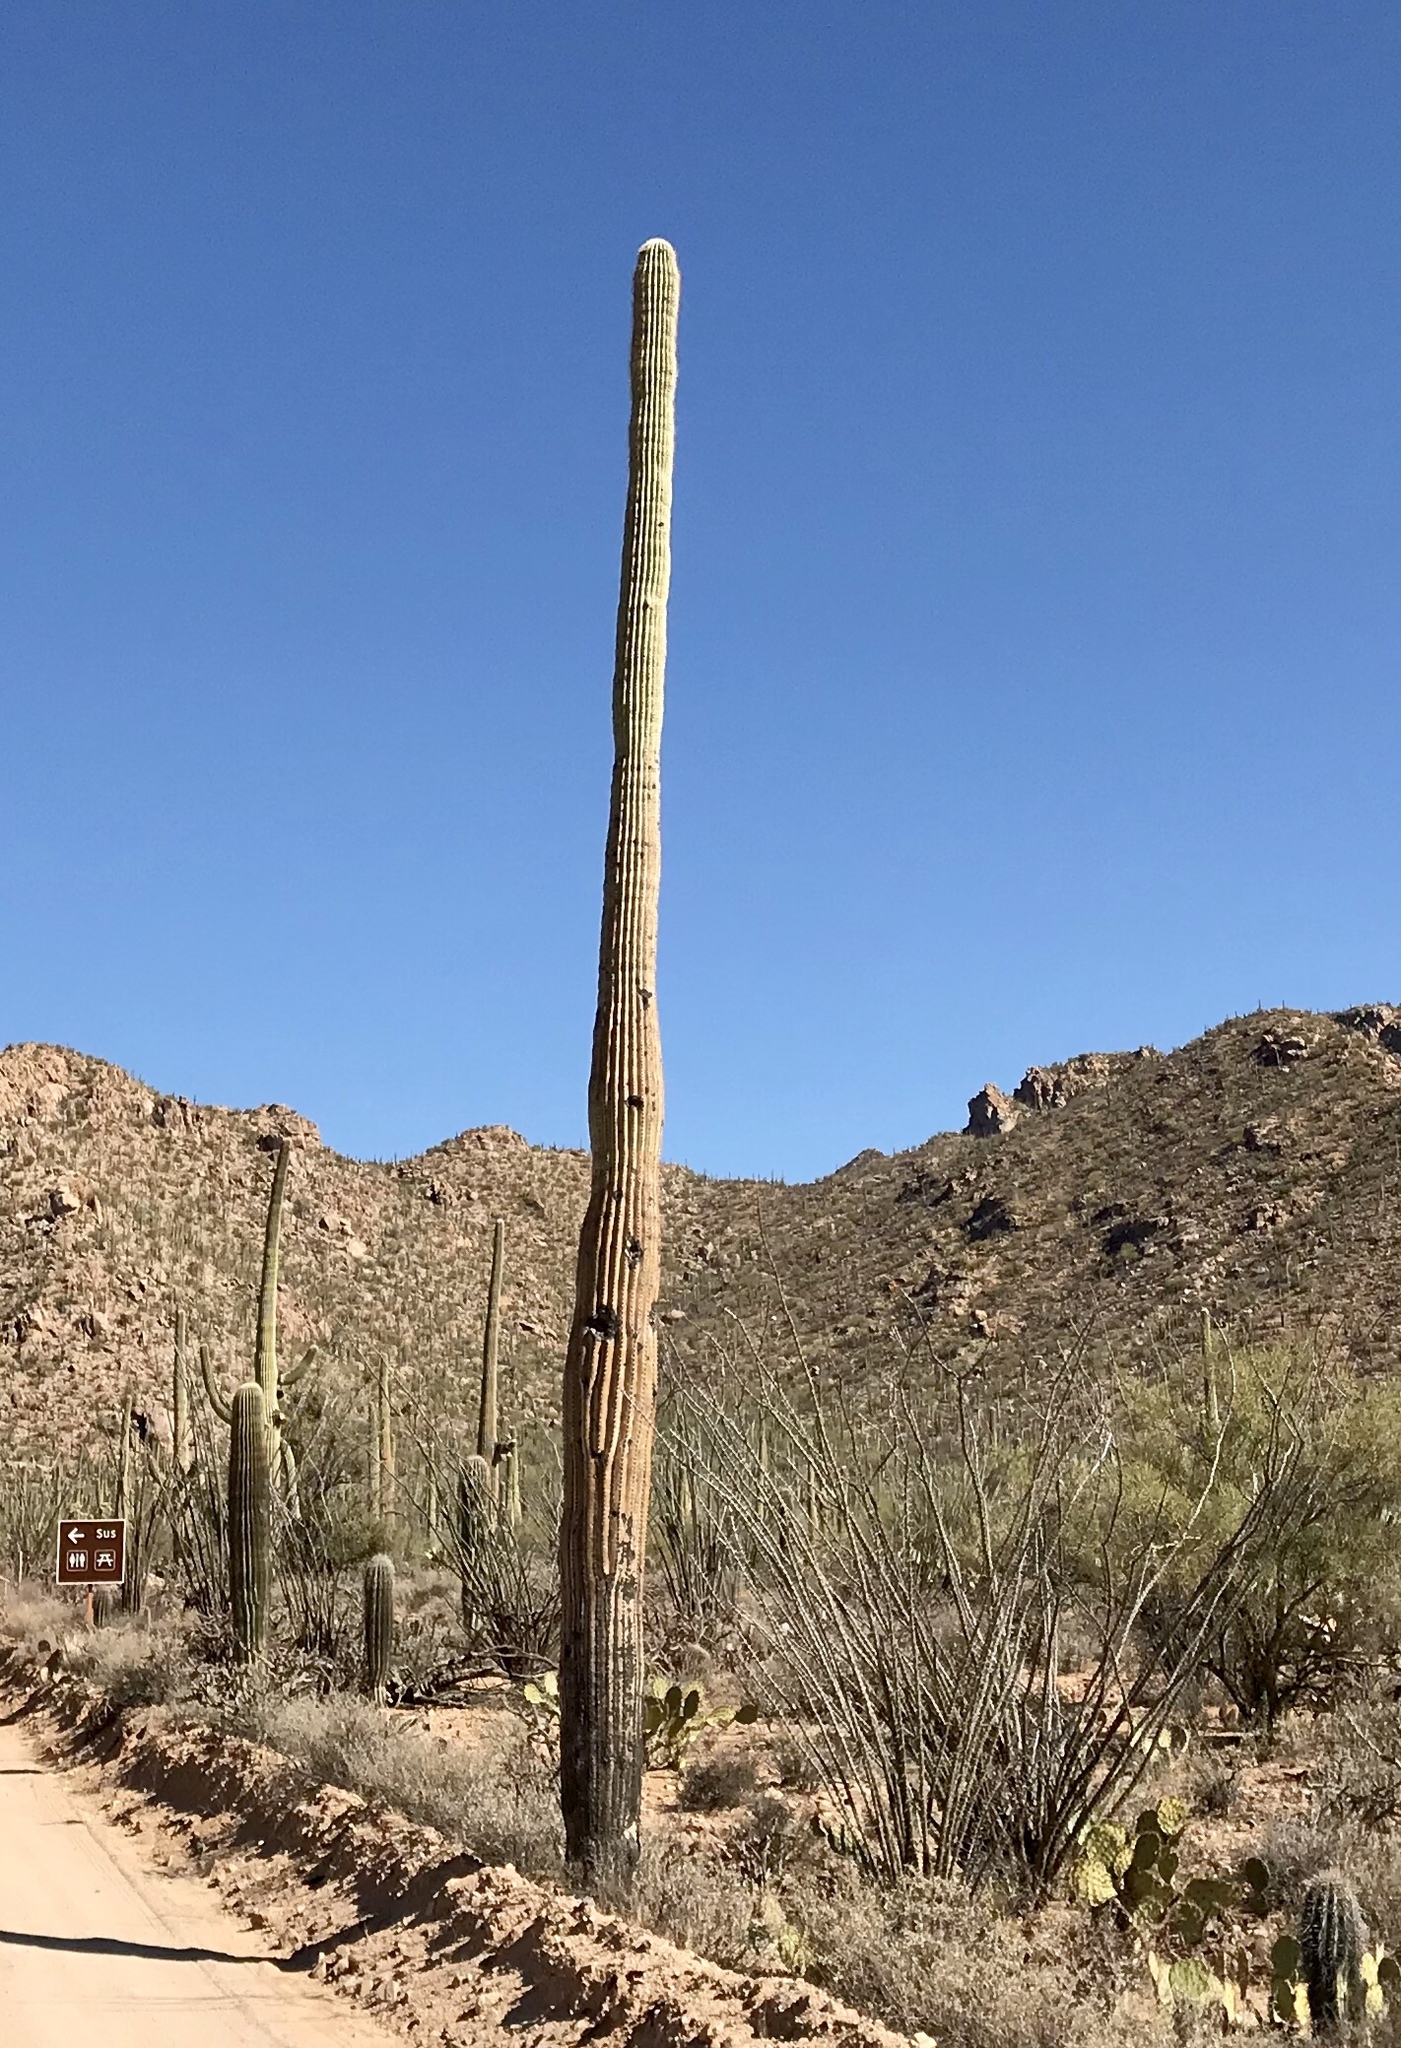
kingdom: Plantae
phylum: Tracheophyta
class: Magnoliopsida
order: Caryophyllales
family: Cactaceae
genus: Carnegiea
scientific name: Carnegiea gigantea
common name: Saguaro
